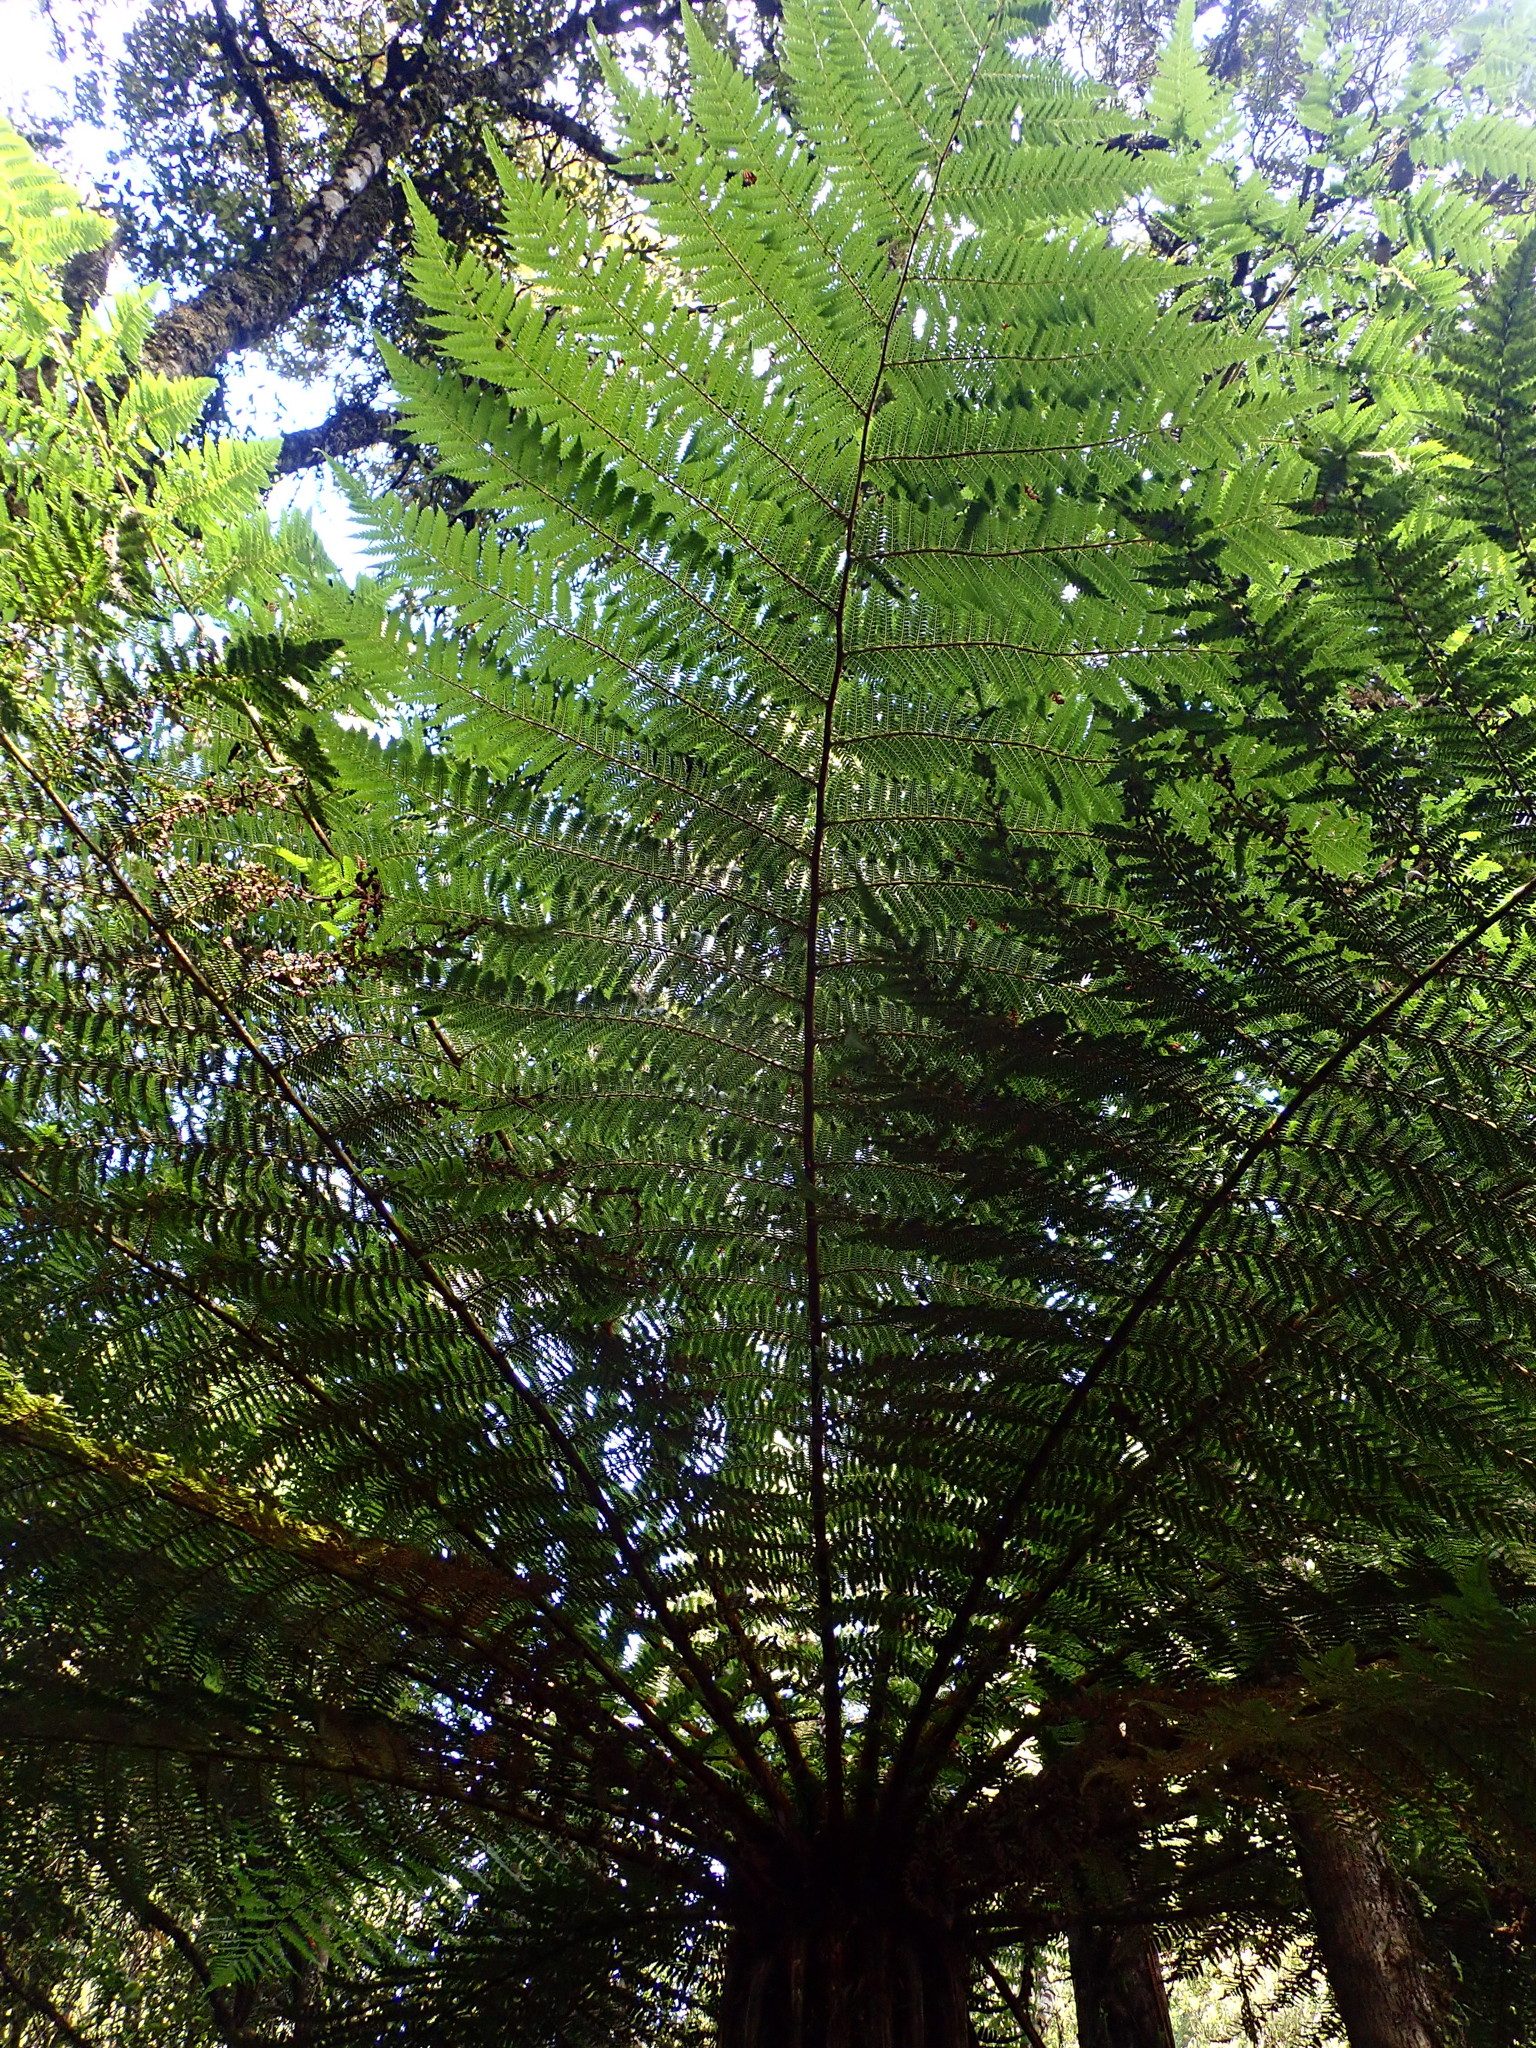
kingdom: Plantae
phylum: Tracheophyta
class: Polypodiopsida
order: Cyatheales
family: Cyatheaceae
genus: Alsophila
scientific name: Alsophila smithii
